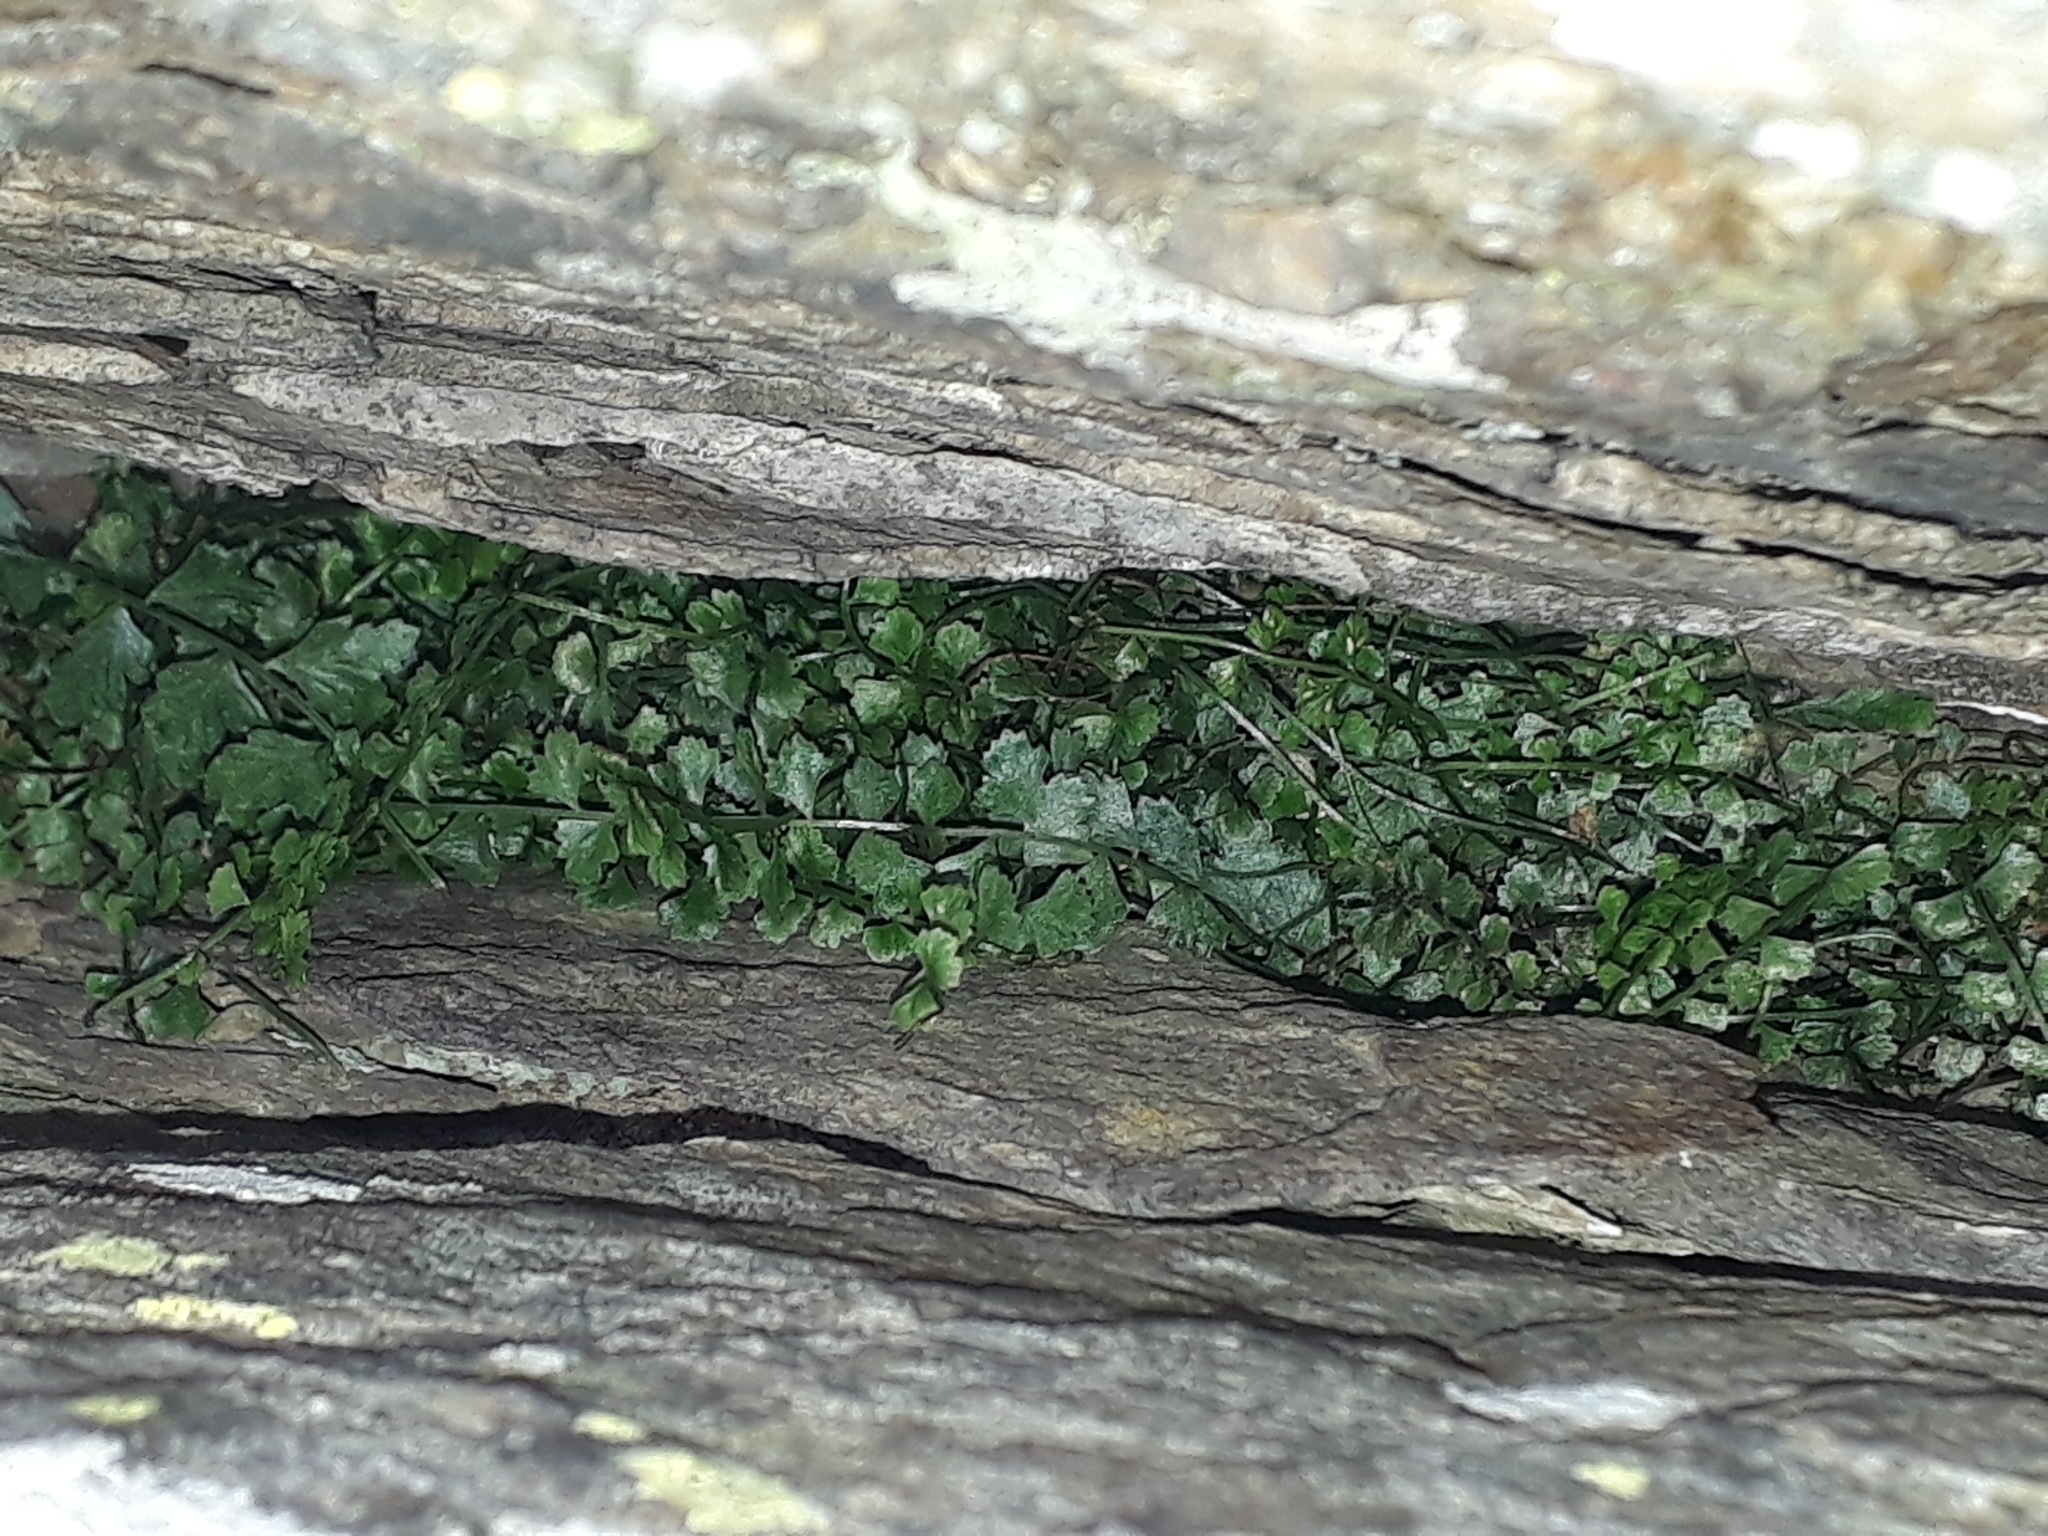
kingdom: Plantae
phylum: Tracheophyta
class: Polypodiopsida
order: Polypodiales
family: Aspleniaceae
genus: Asplenium
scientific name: Asplenium flabellifolium
